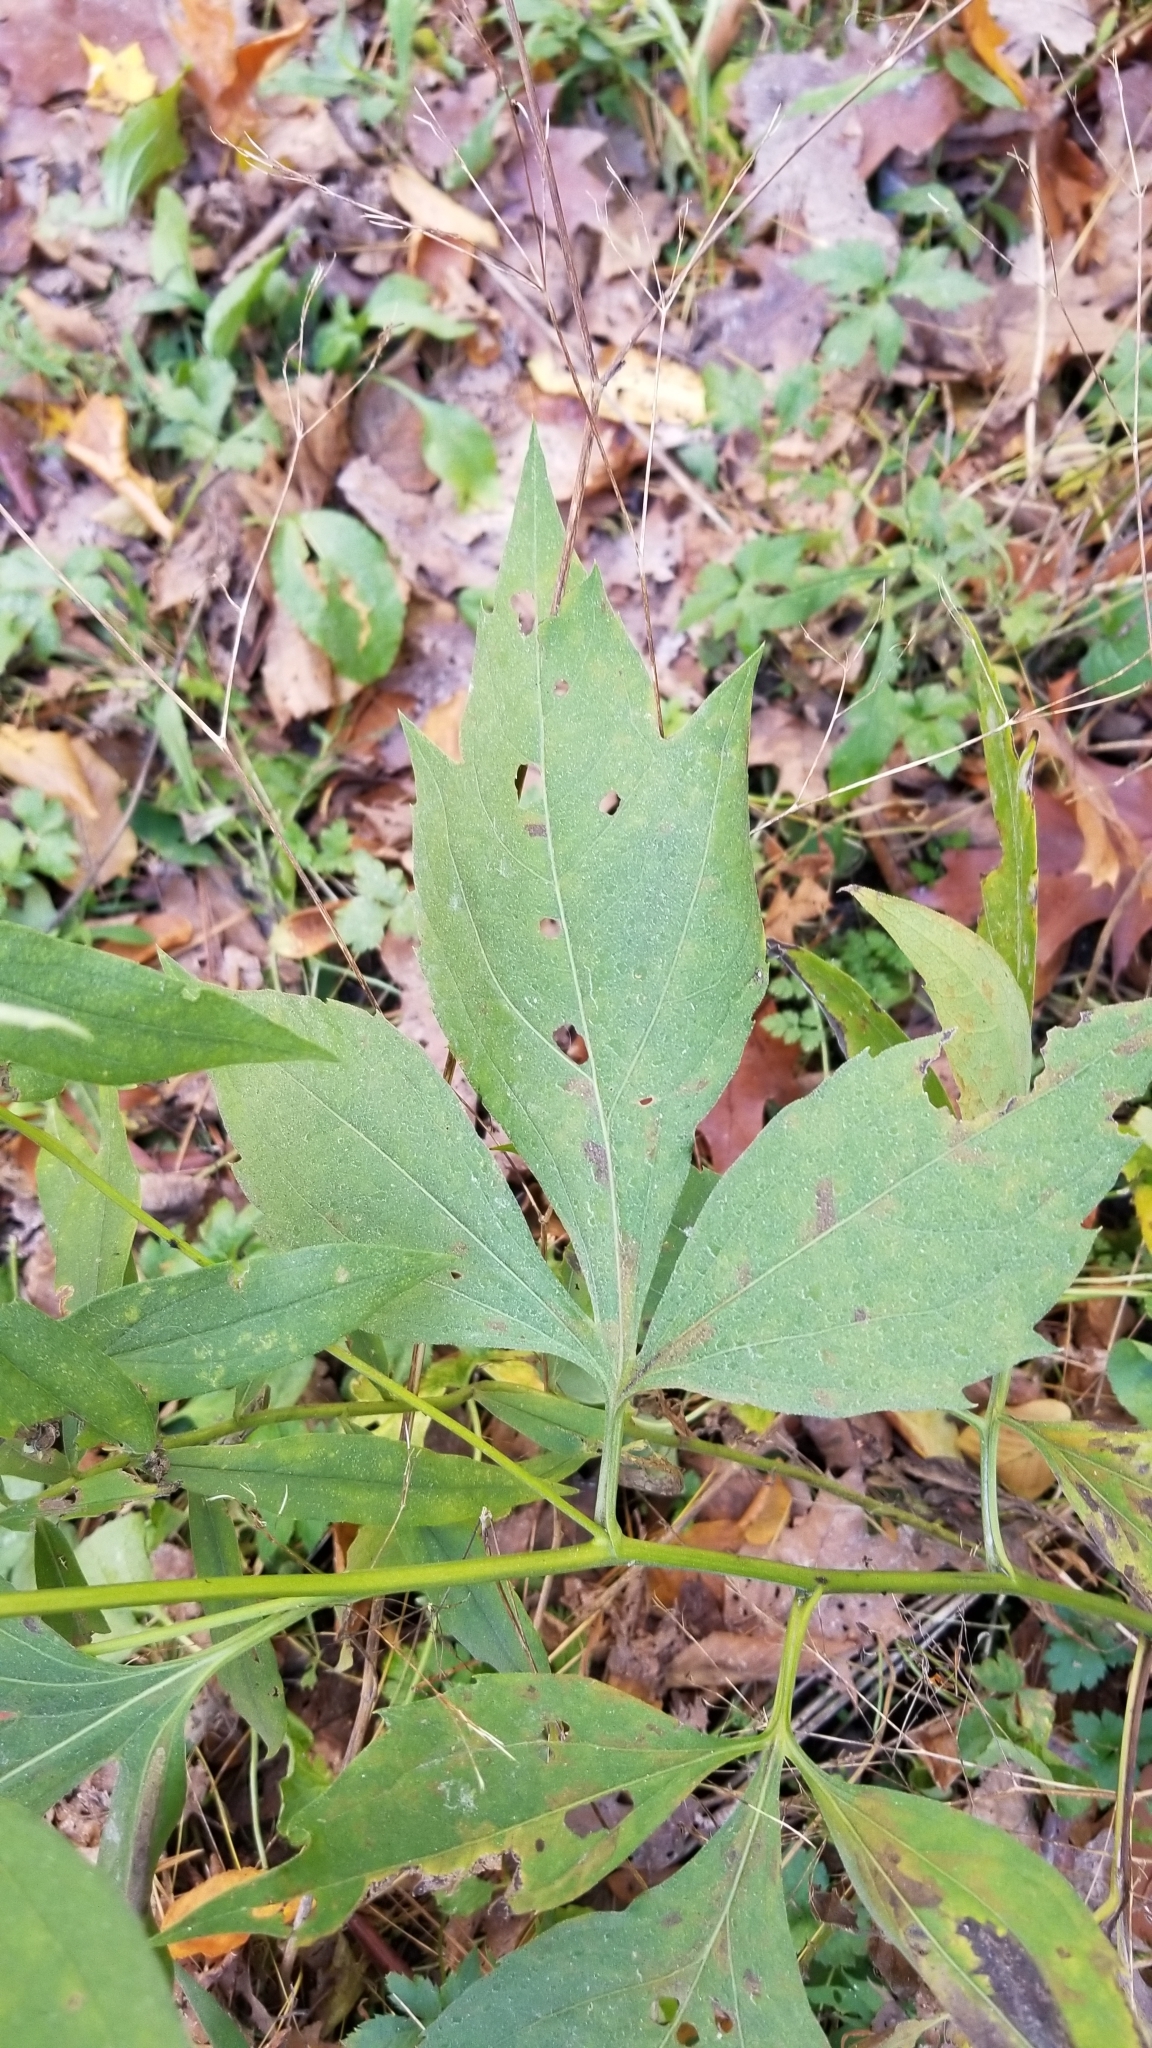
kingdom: Plantae
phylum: Tracheophyta
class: Magnoliopsida
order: Asterales
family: Asteraceae
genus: Rudbeckia
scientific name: Rudbeckia laciniata
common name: Coneflower
